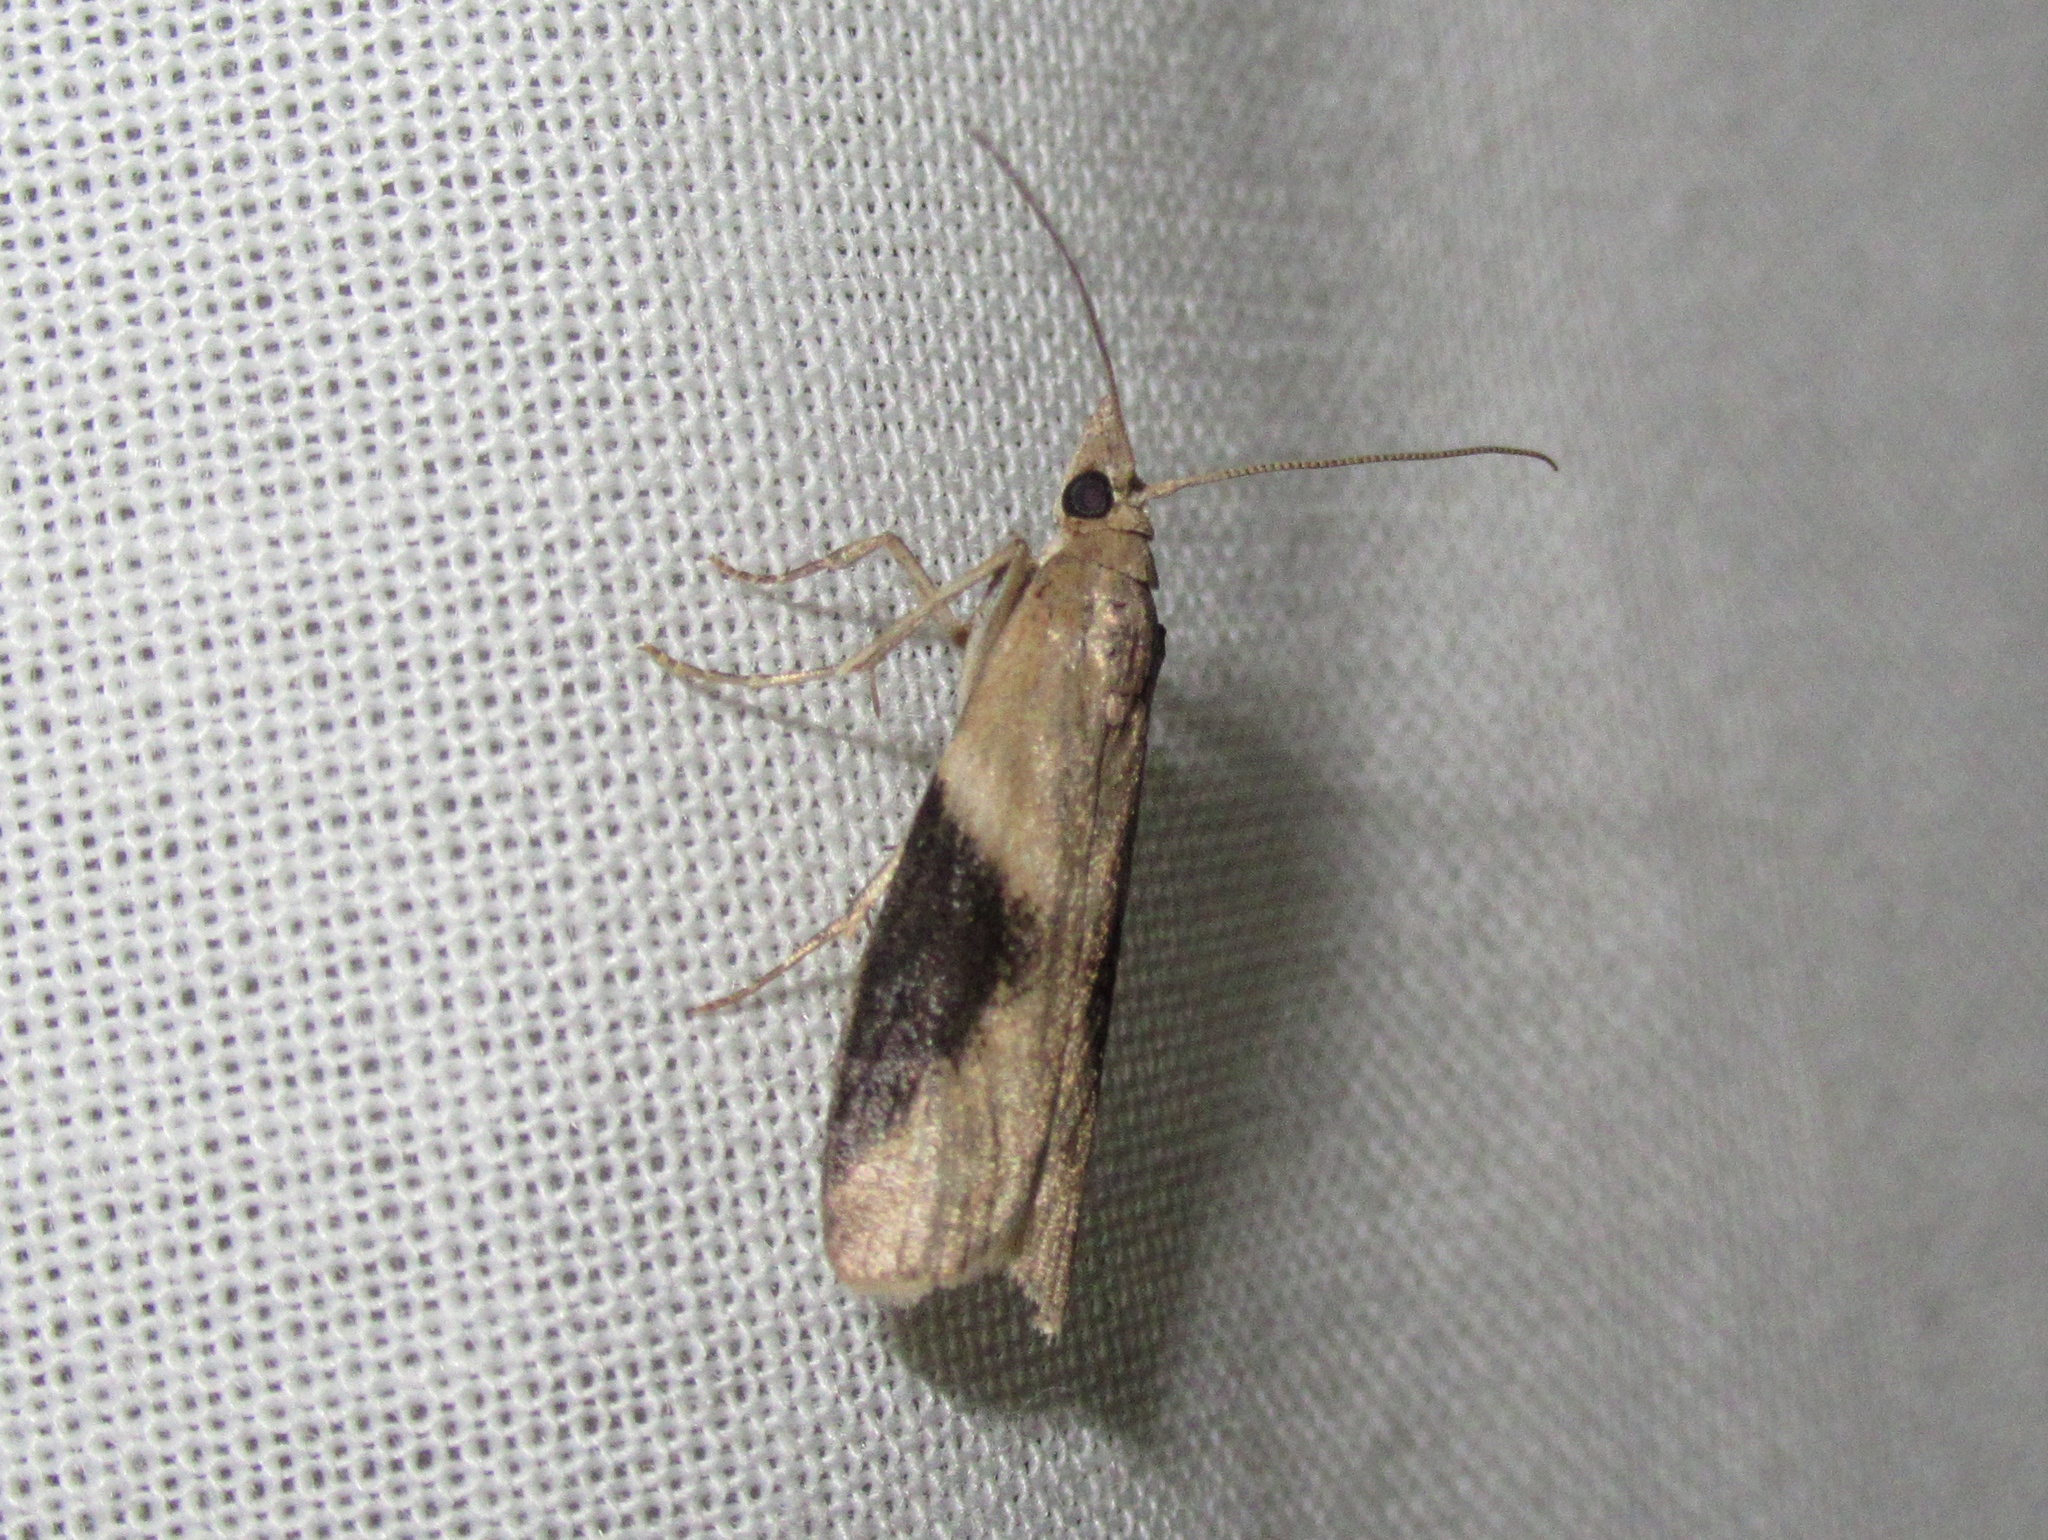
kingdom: Animalia
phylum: Arthropoda
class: Insecta
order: Lepidoptera
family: Pyralidae
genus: Ptyomaxia
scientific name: Ptyomaxia trigonogramma
